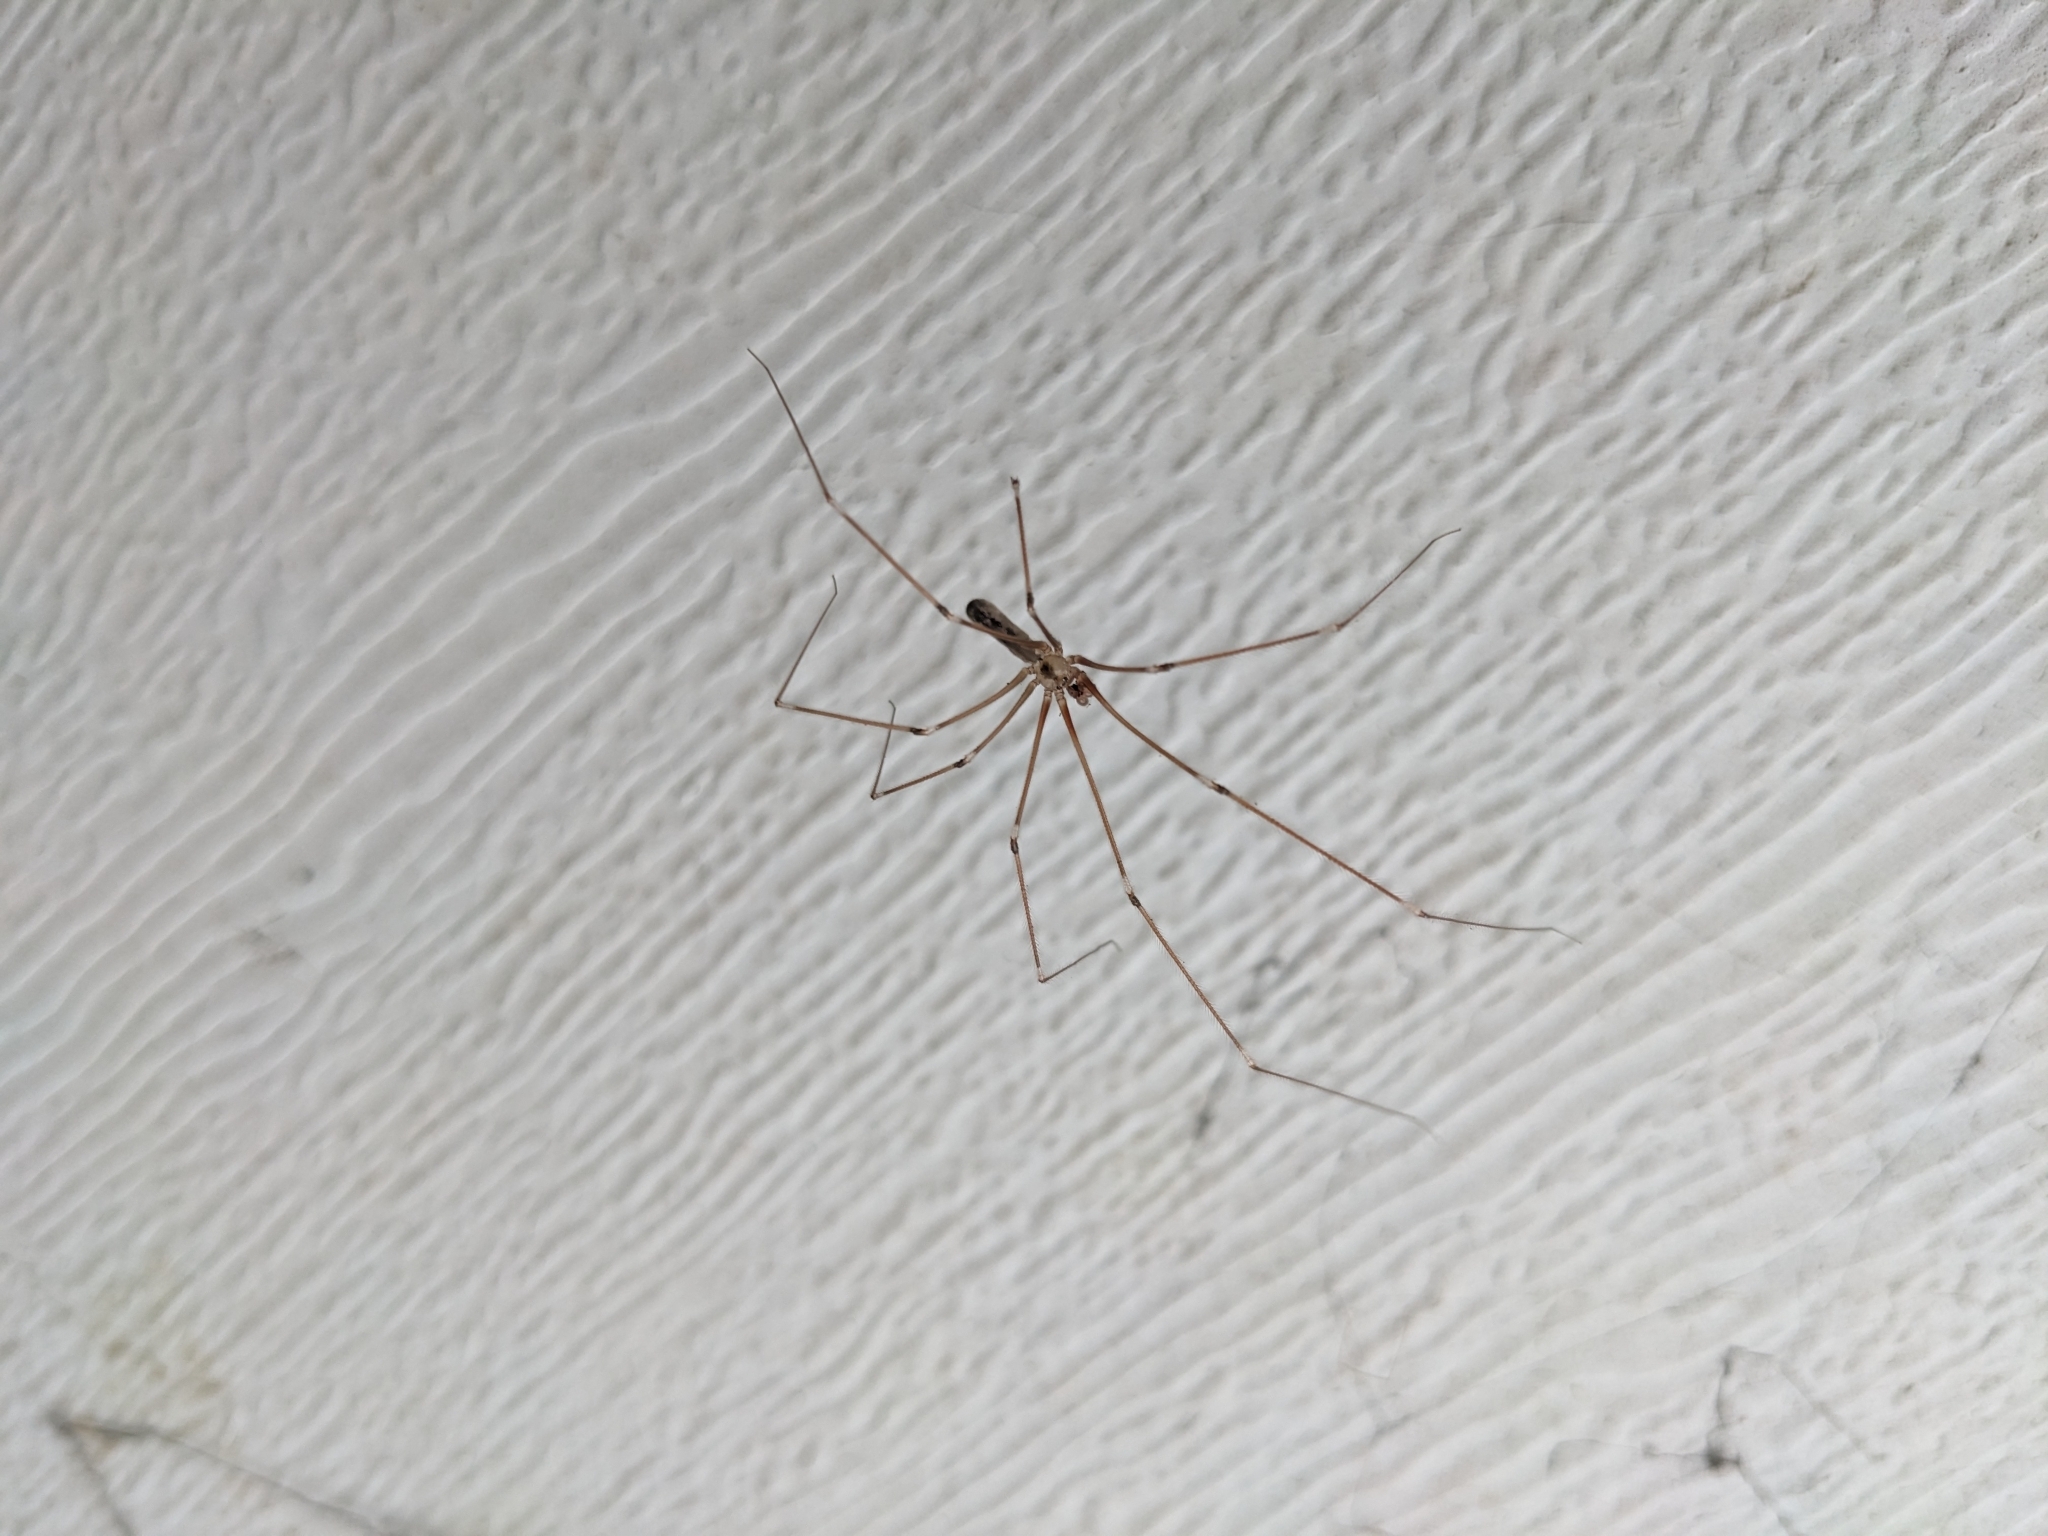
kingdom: Animalia
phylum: Arthropoda
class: Arachnida
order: Araneae
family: Pholcidae
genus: Pholcus
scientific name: Pholcus phalangioides
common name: Longbodied cellar spider
